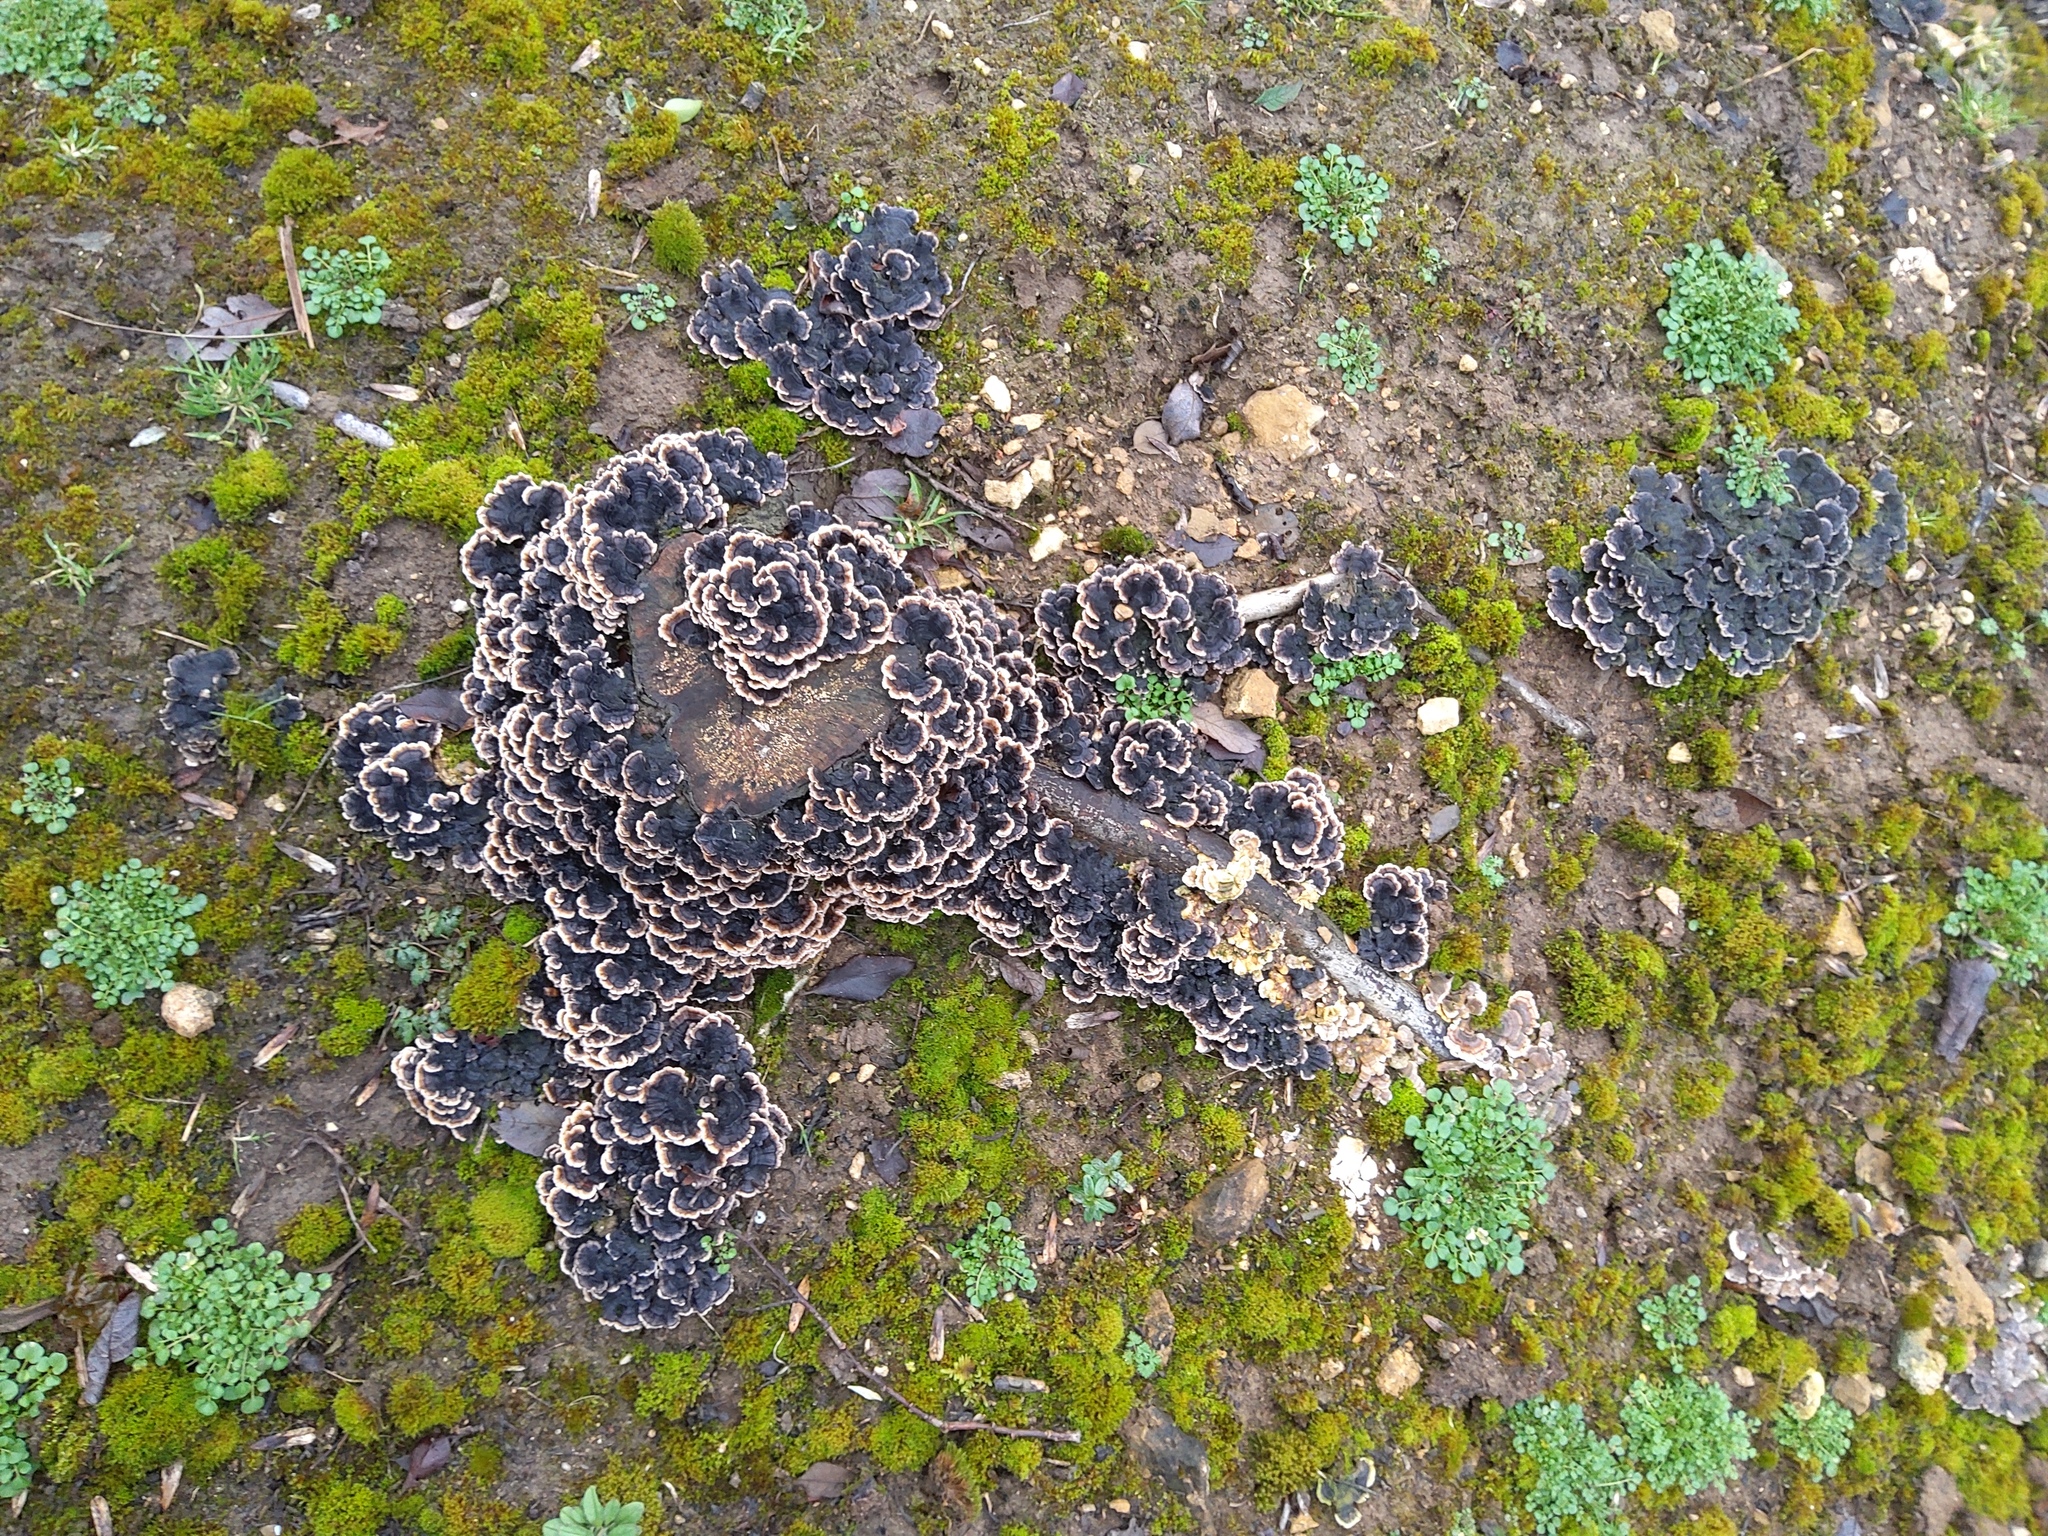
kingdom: Fungi
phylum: Basidiomycota
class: Agaricomycetes
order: Polyporales
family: Polyporaceae
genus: Trametes
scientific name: Trametes versicolor
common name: Turkeytail
